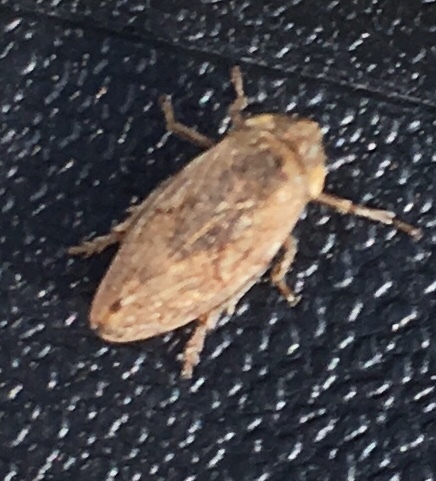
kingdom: Animalia
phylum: Arthropoda
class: Insecta
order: Hemiptera
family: Aphrophoridae
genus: Philaenus
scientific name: Philaenus spumarius
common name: Meadow spittlebug
